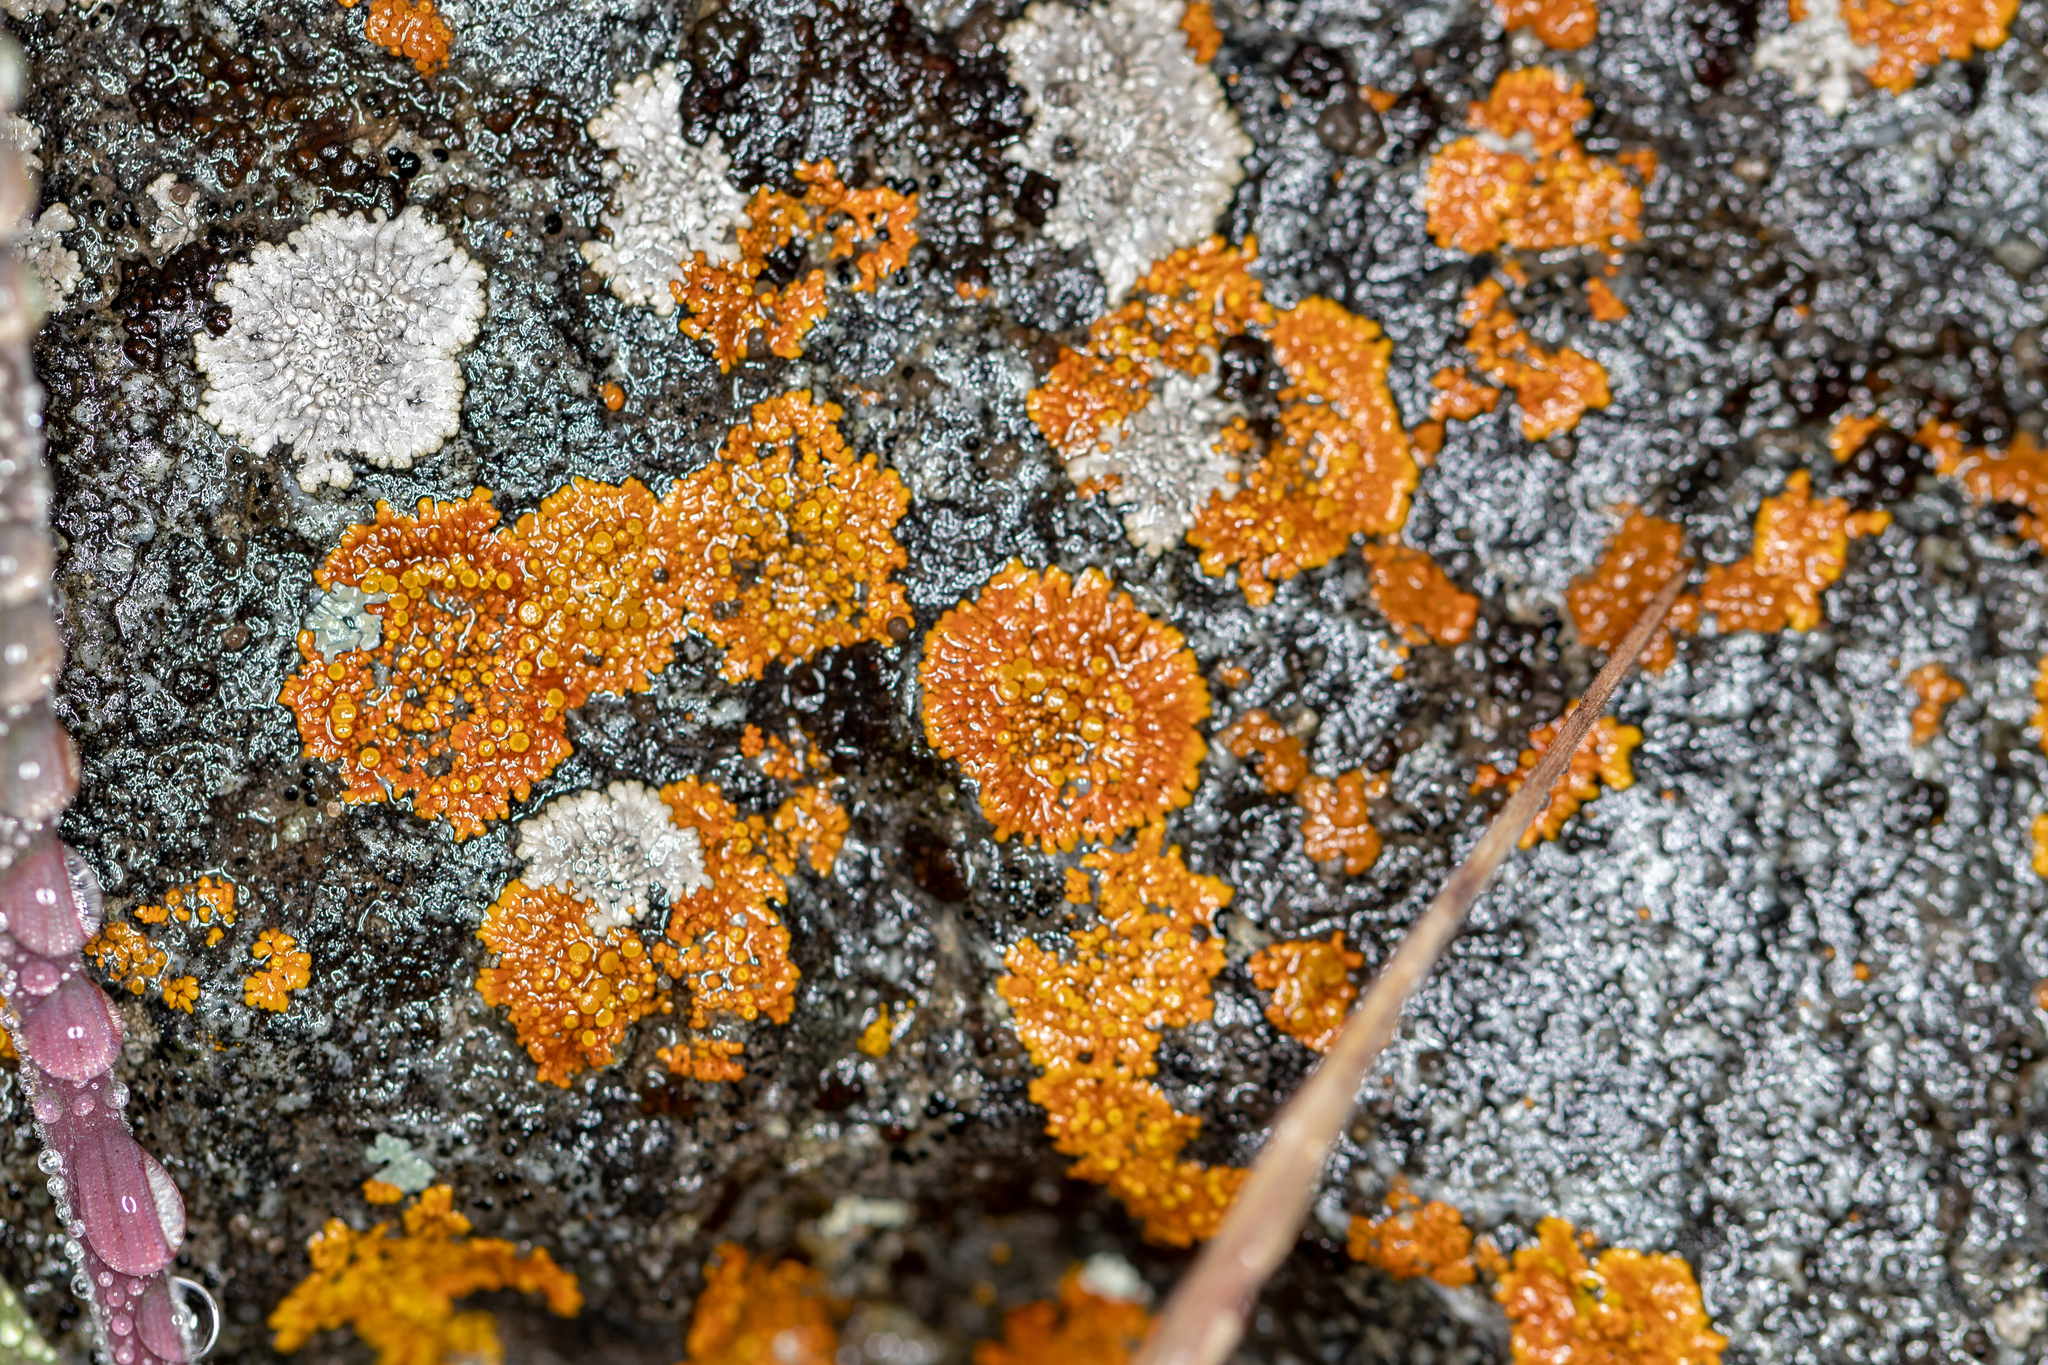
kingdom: Fungi
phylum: Ascomycota
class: Lecanoromycetes
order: Teloschistales
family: Teloschistaceae
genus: Igneoplaca
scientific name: Igneoplaca ignea
